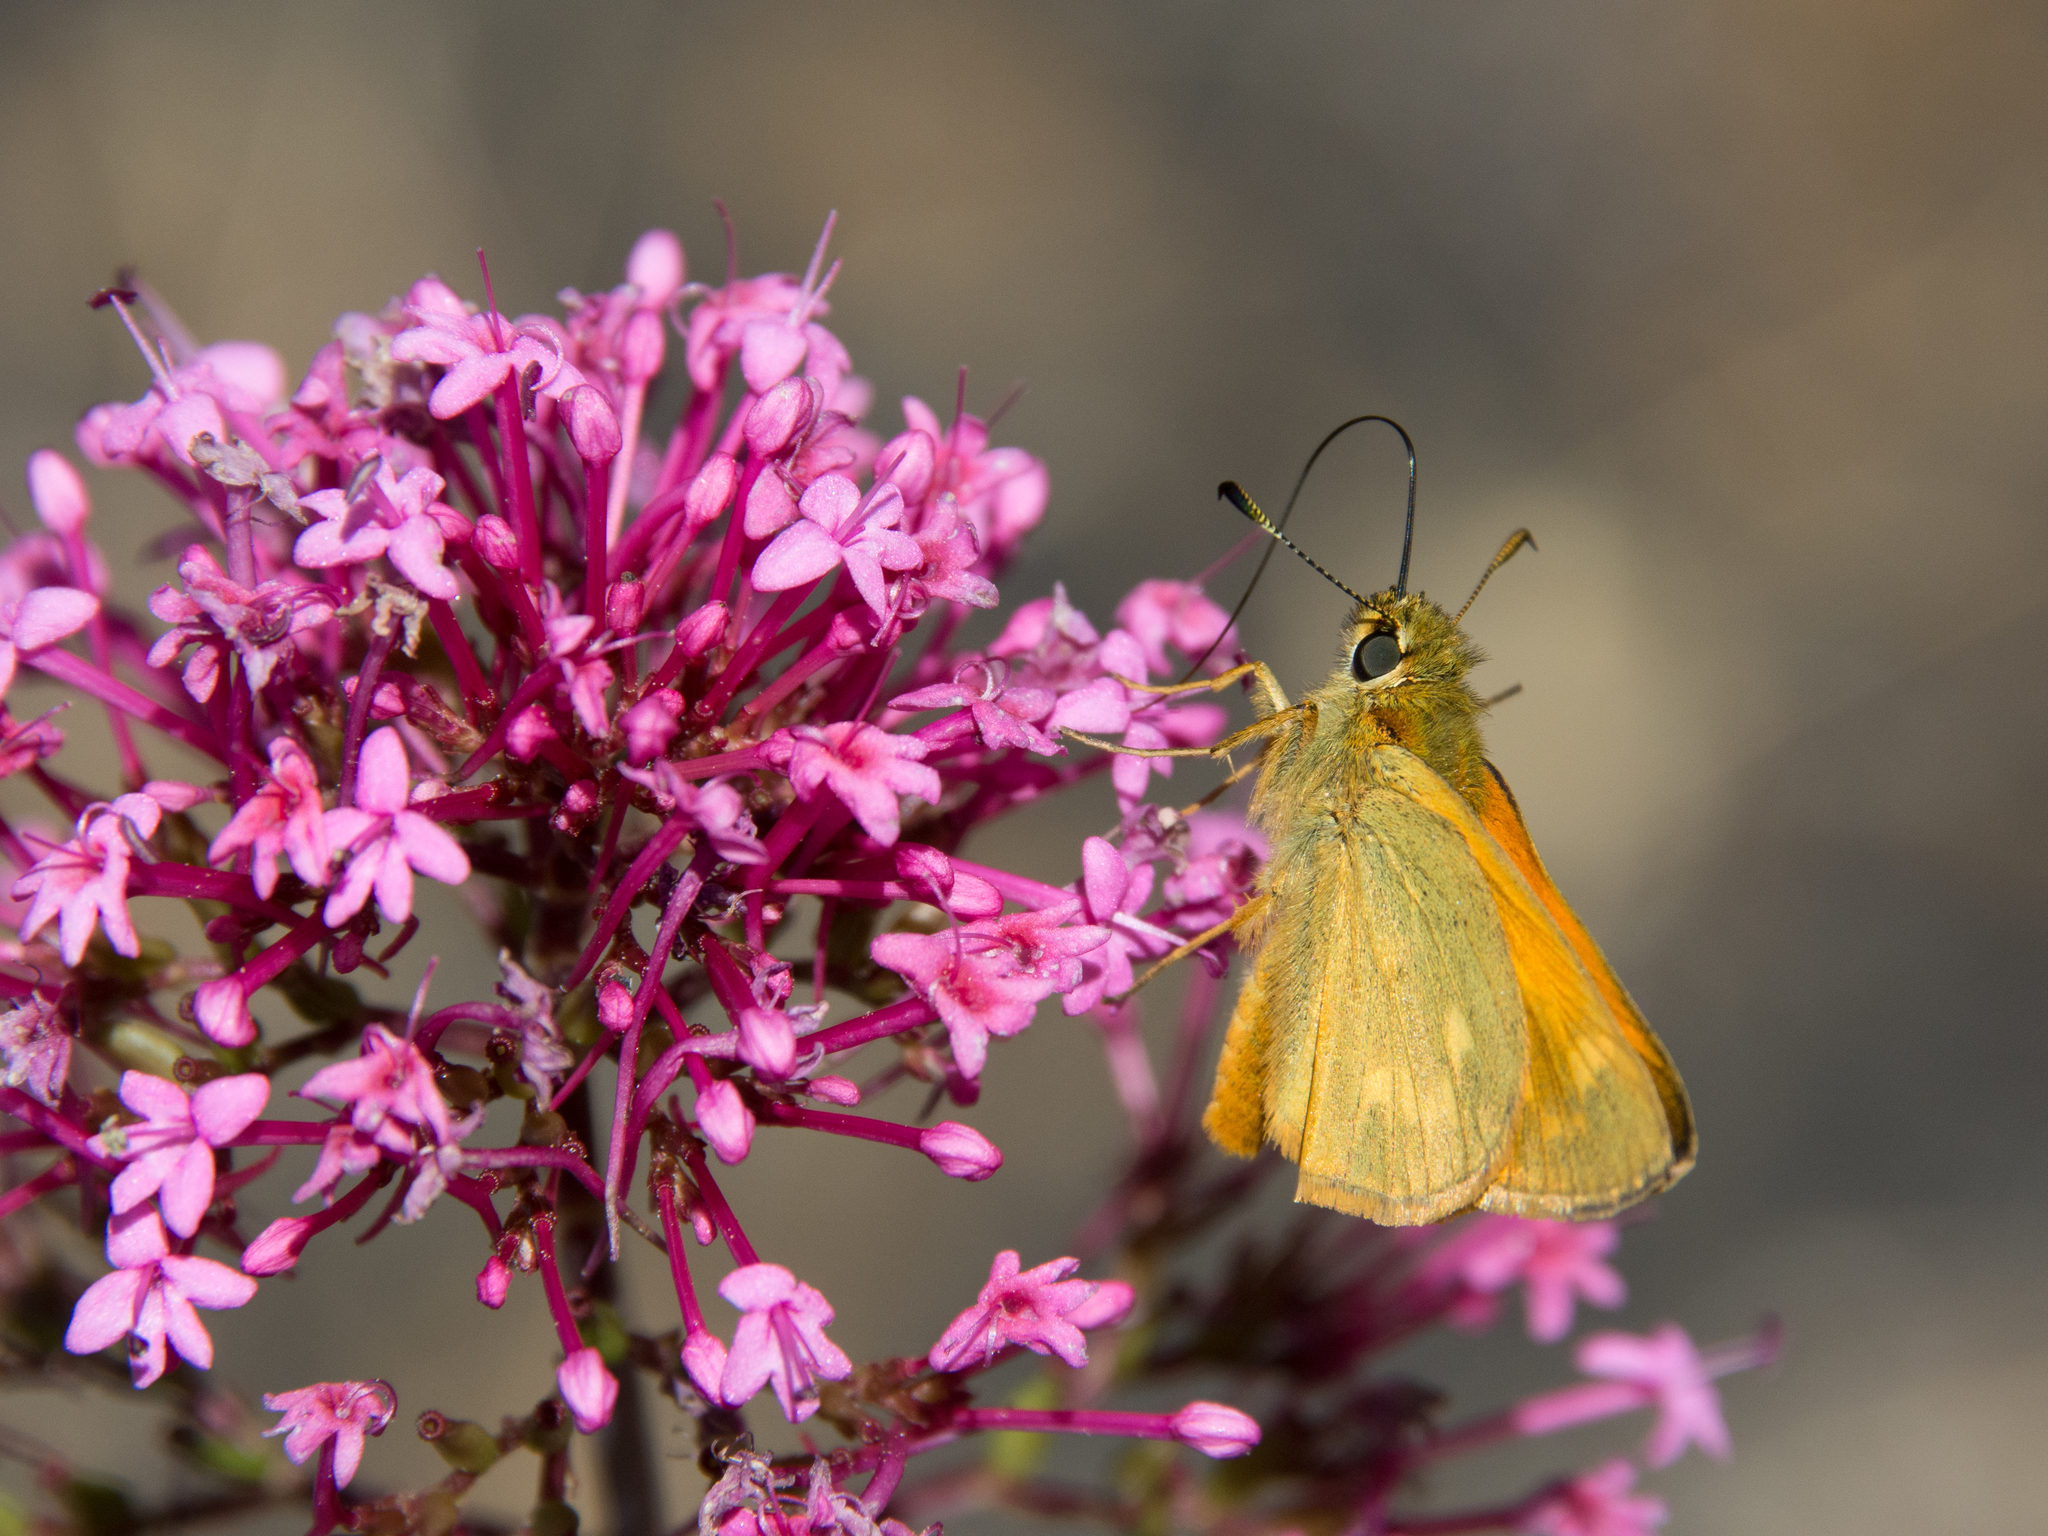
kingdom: Animalia
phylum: Arthropoda
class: Insecta
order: Lepidoptera
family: Hesperiidae
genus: Ochlodes
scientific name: Ochlodes venata
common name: Large skipper
